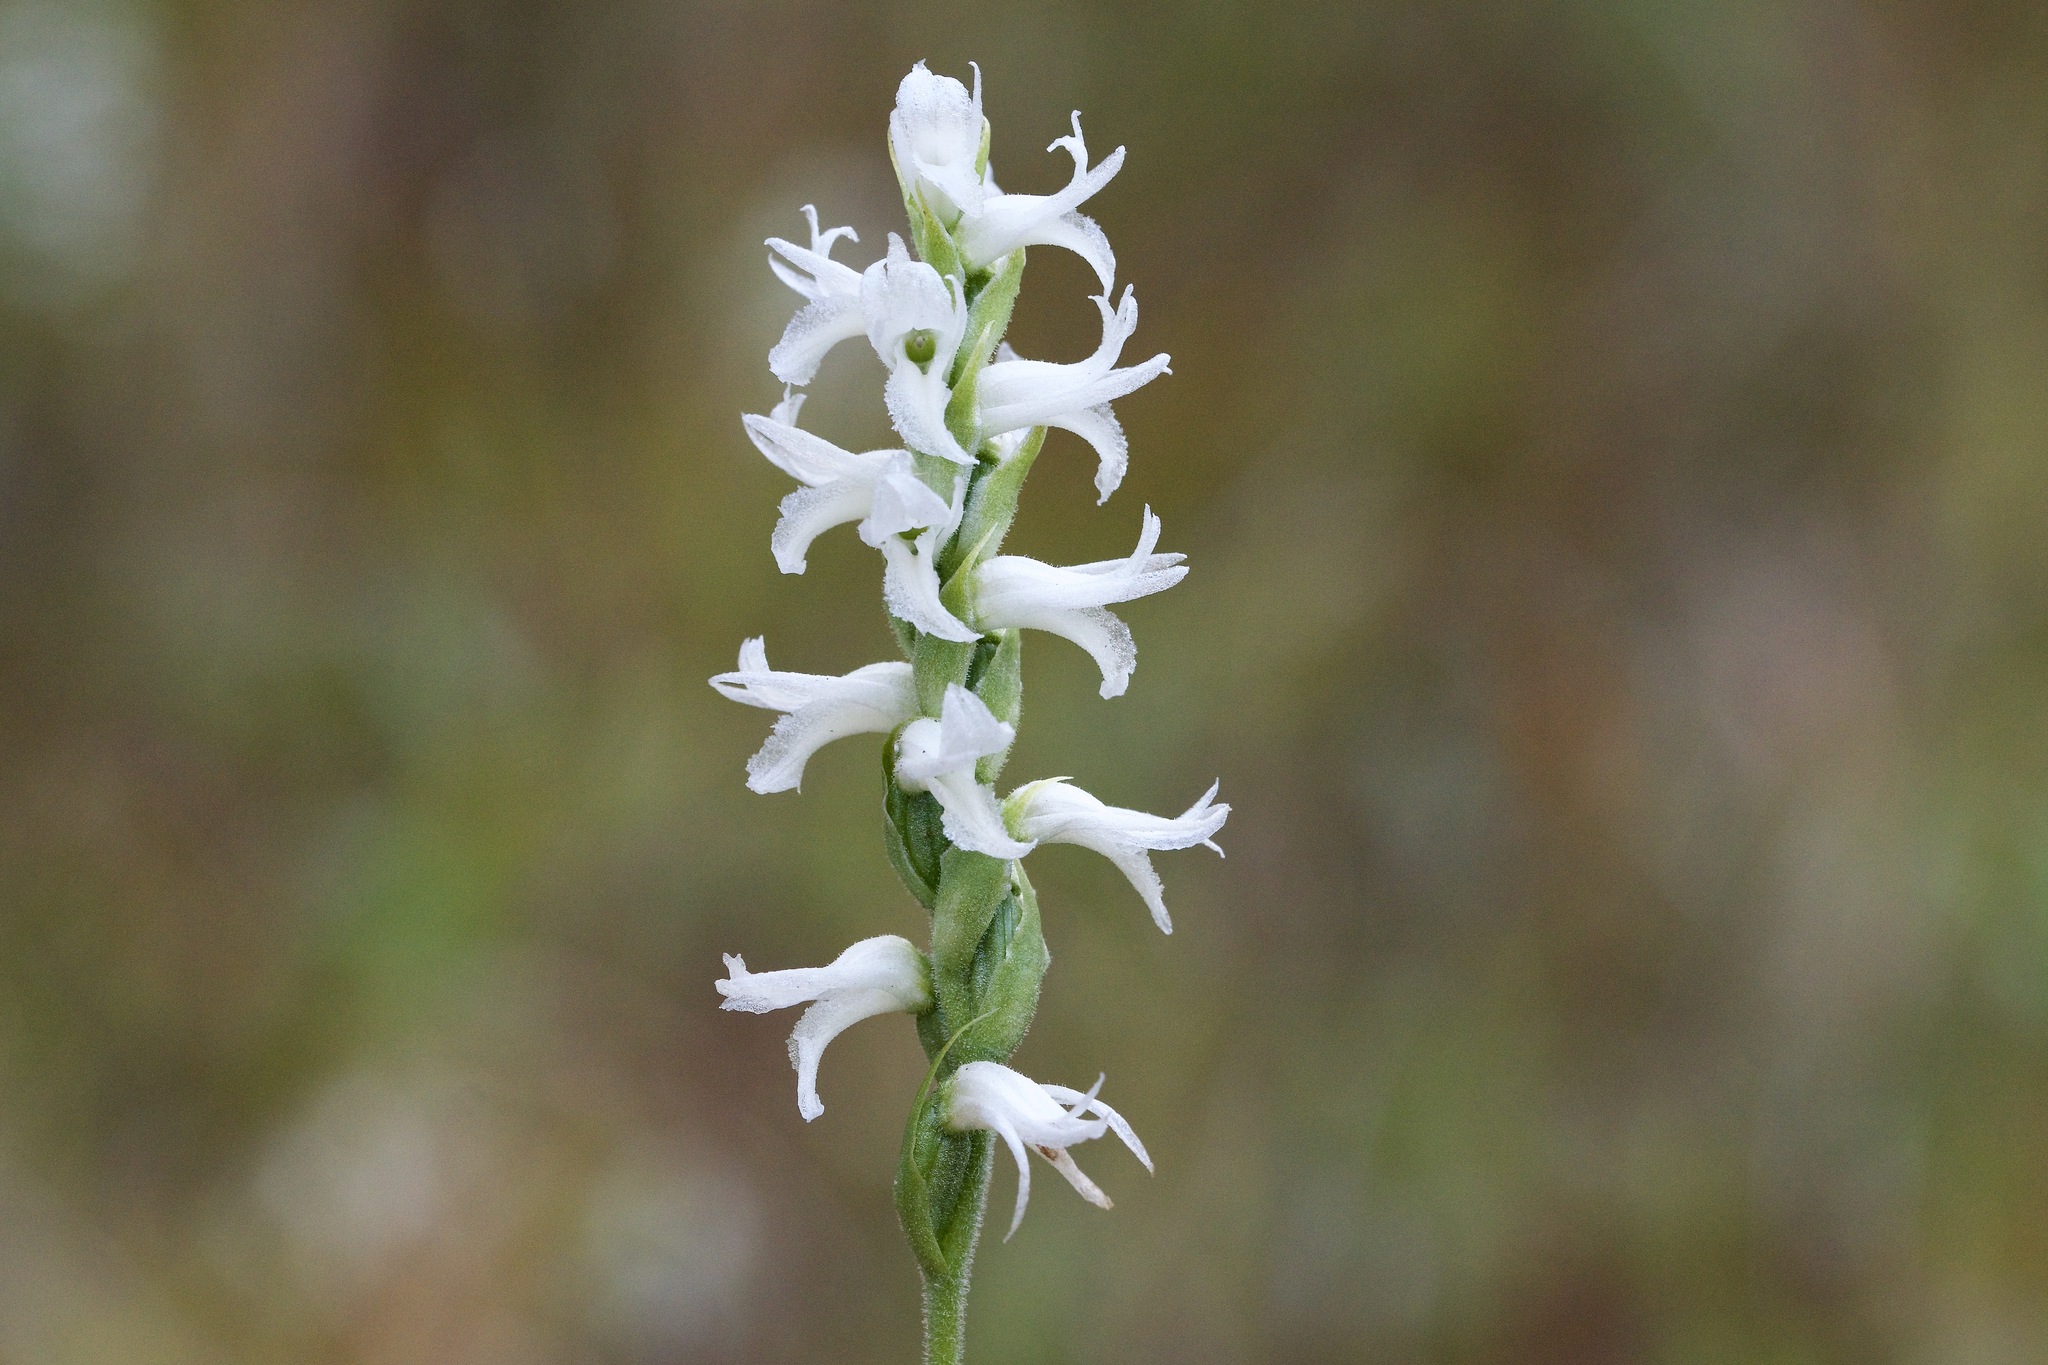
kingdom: Plantae
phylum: Tracheophyta
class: Liliopsida
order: Asparagales
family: Orchidaceae
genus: Spiranthes
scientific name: Spiranthes incurva
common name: Sphinx ladies'-tresses
